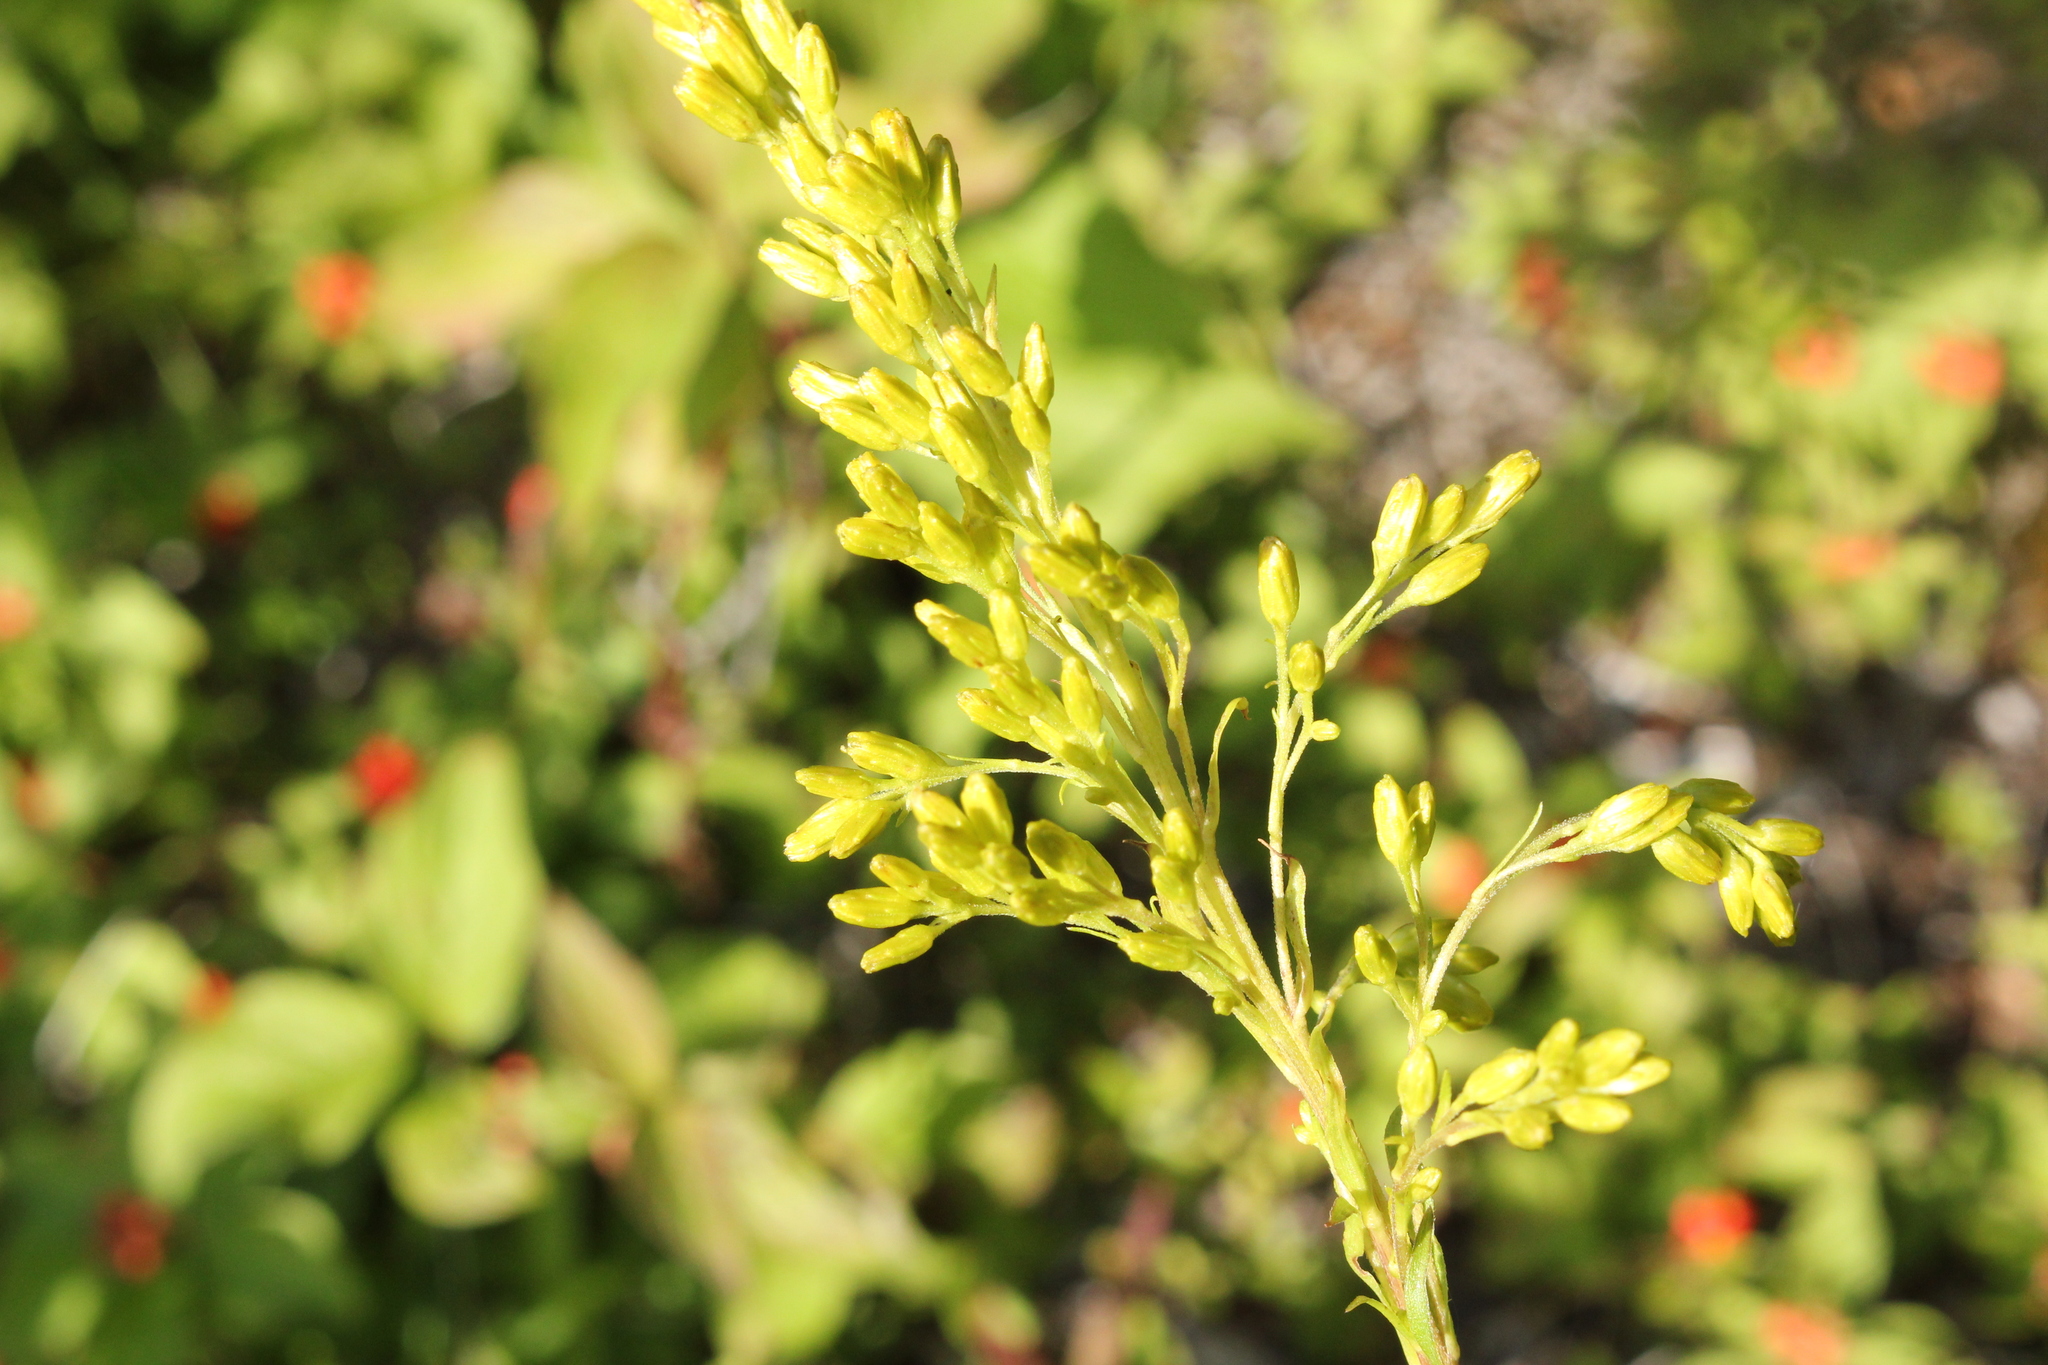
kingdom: Plantae
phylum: Tracheophyta
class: Magnoliopsida
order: Asterales
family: Asteraceae
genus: Solidago
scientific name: Solidago juncea
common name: Early goldenrod
